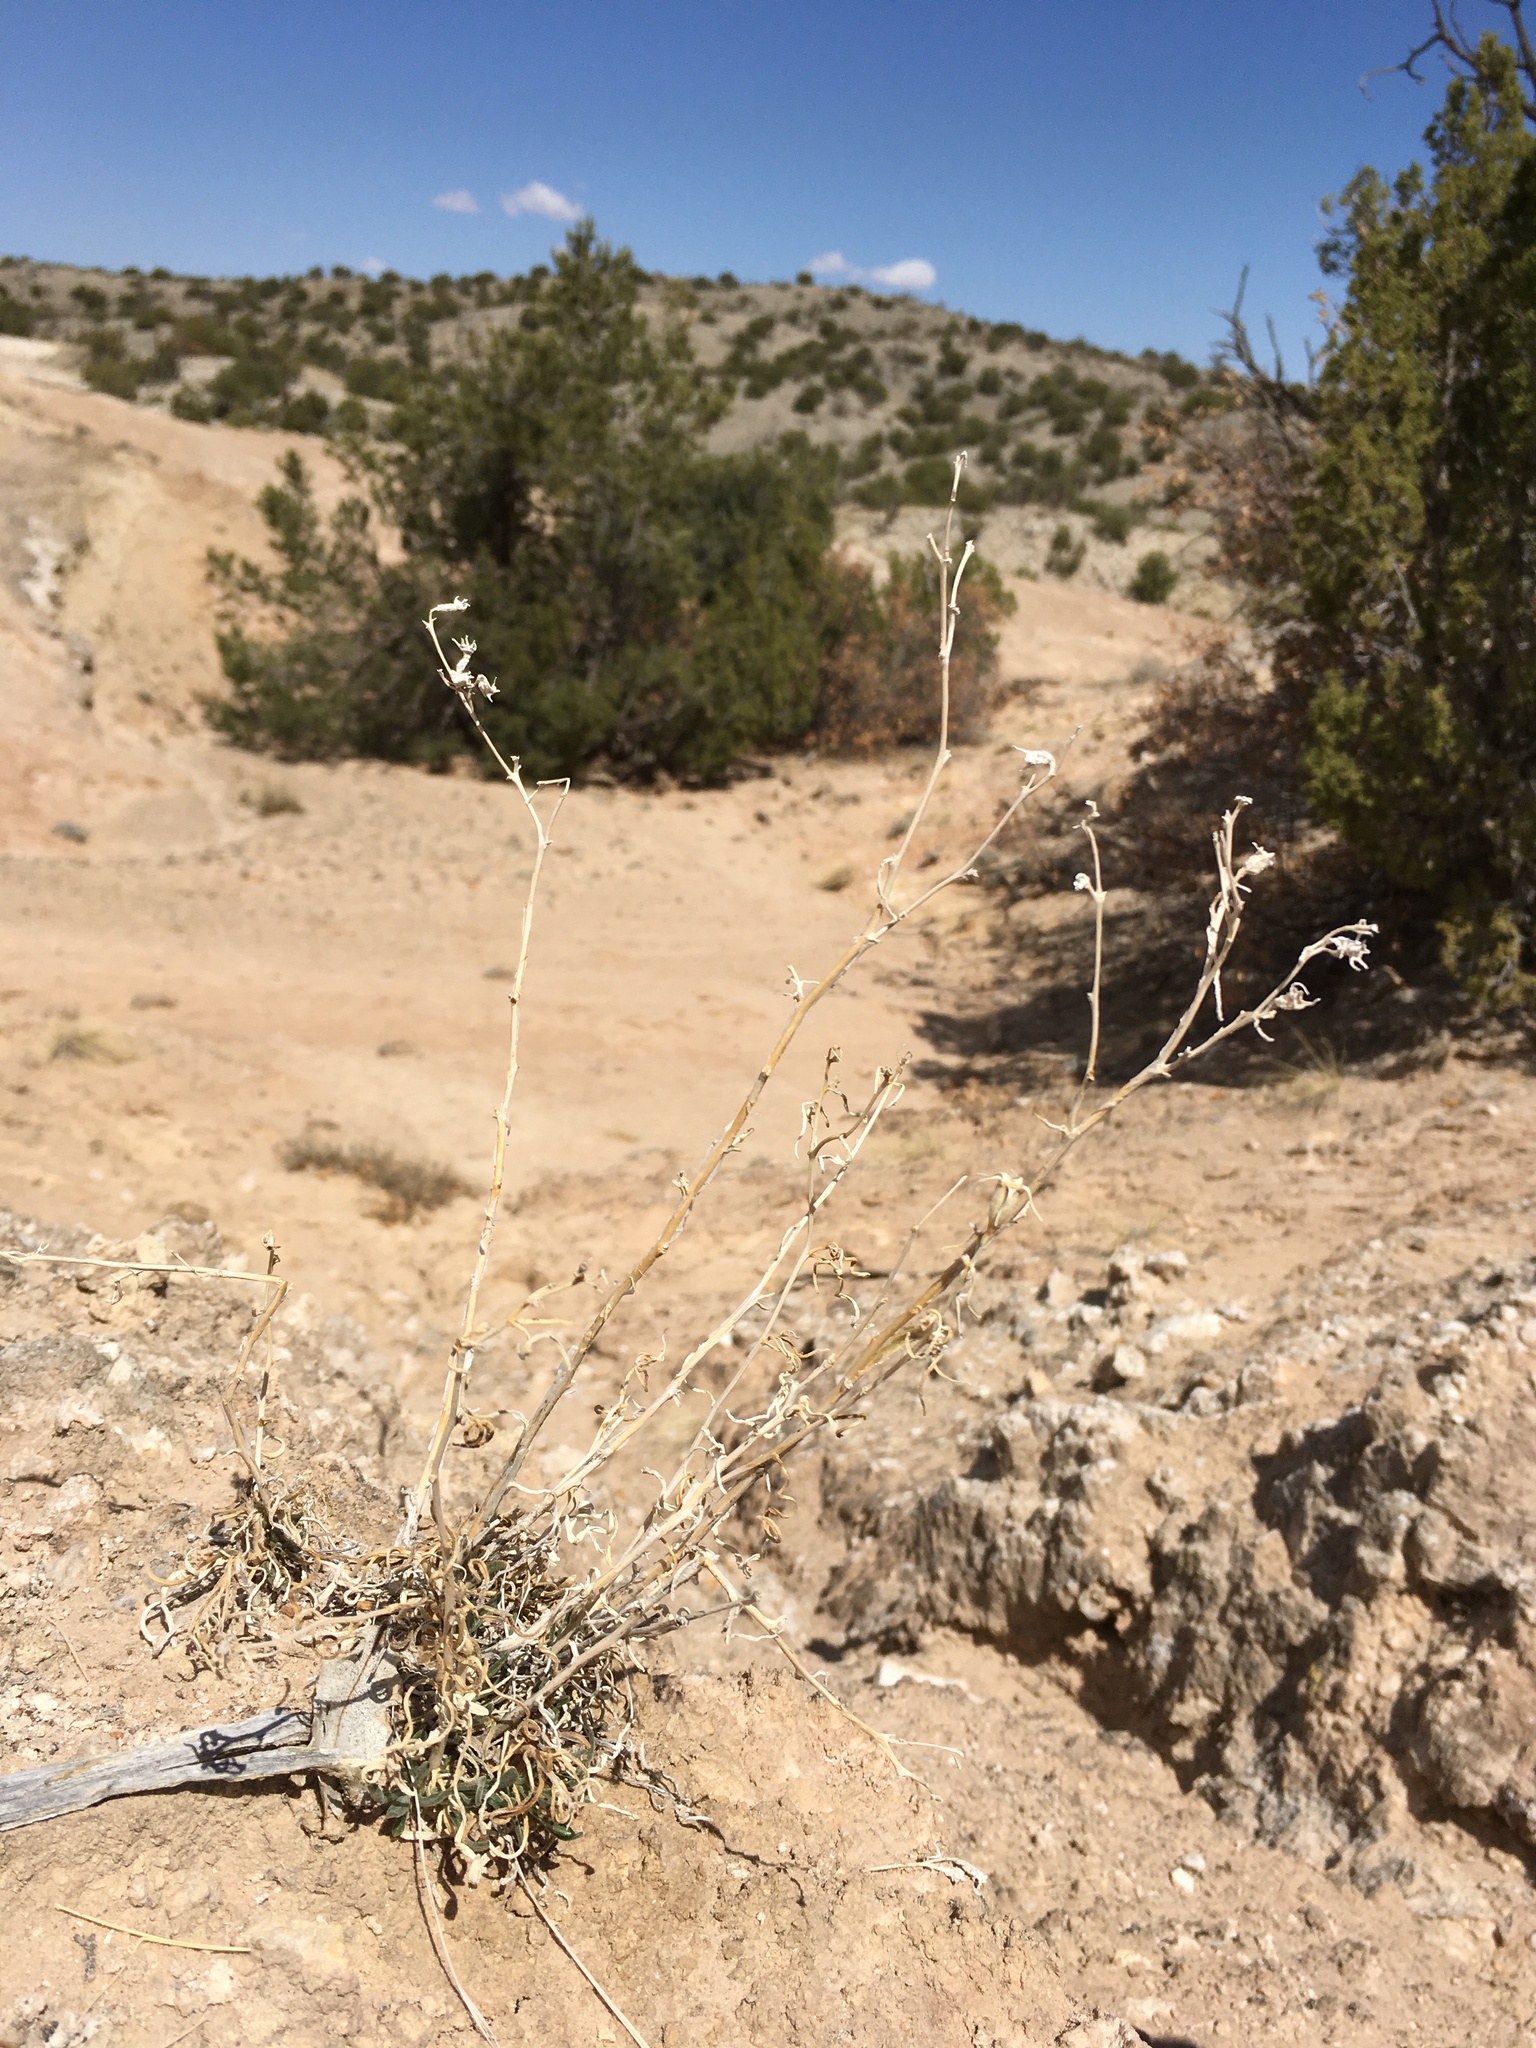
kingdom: Plantae
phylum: Tracheophyta
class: Magnoliopsida
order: Cornales
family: Loasaceae
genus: Mentzelia
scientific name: Mentzelia todiltoensis
